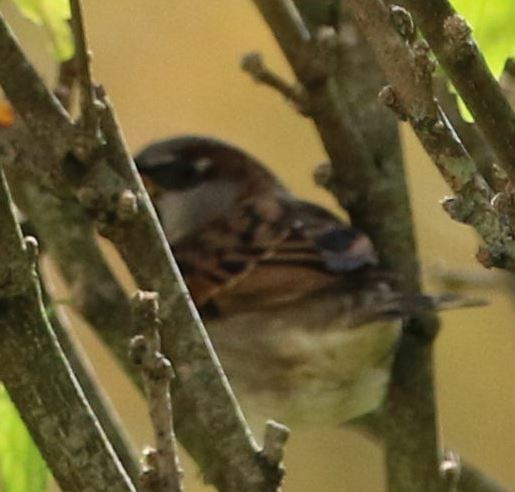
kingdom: Animalia
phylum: Chordata
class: Aves
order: Passeriformes
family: Passeridae
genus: Passer
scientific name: Passer domesticus
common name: House sparrow
